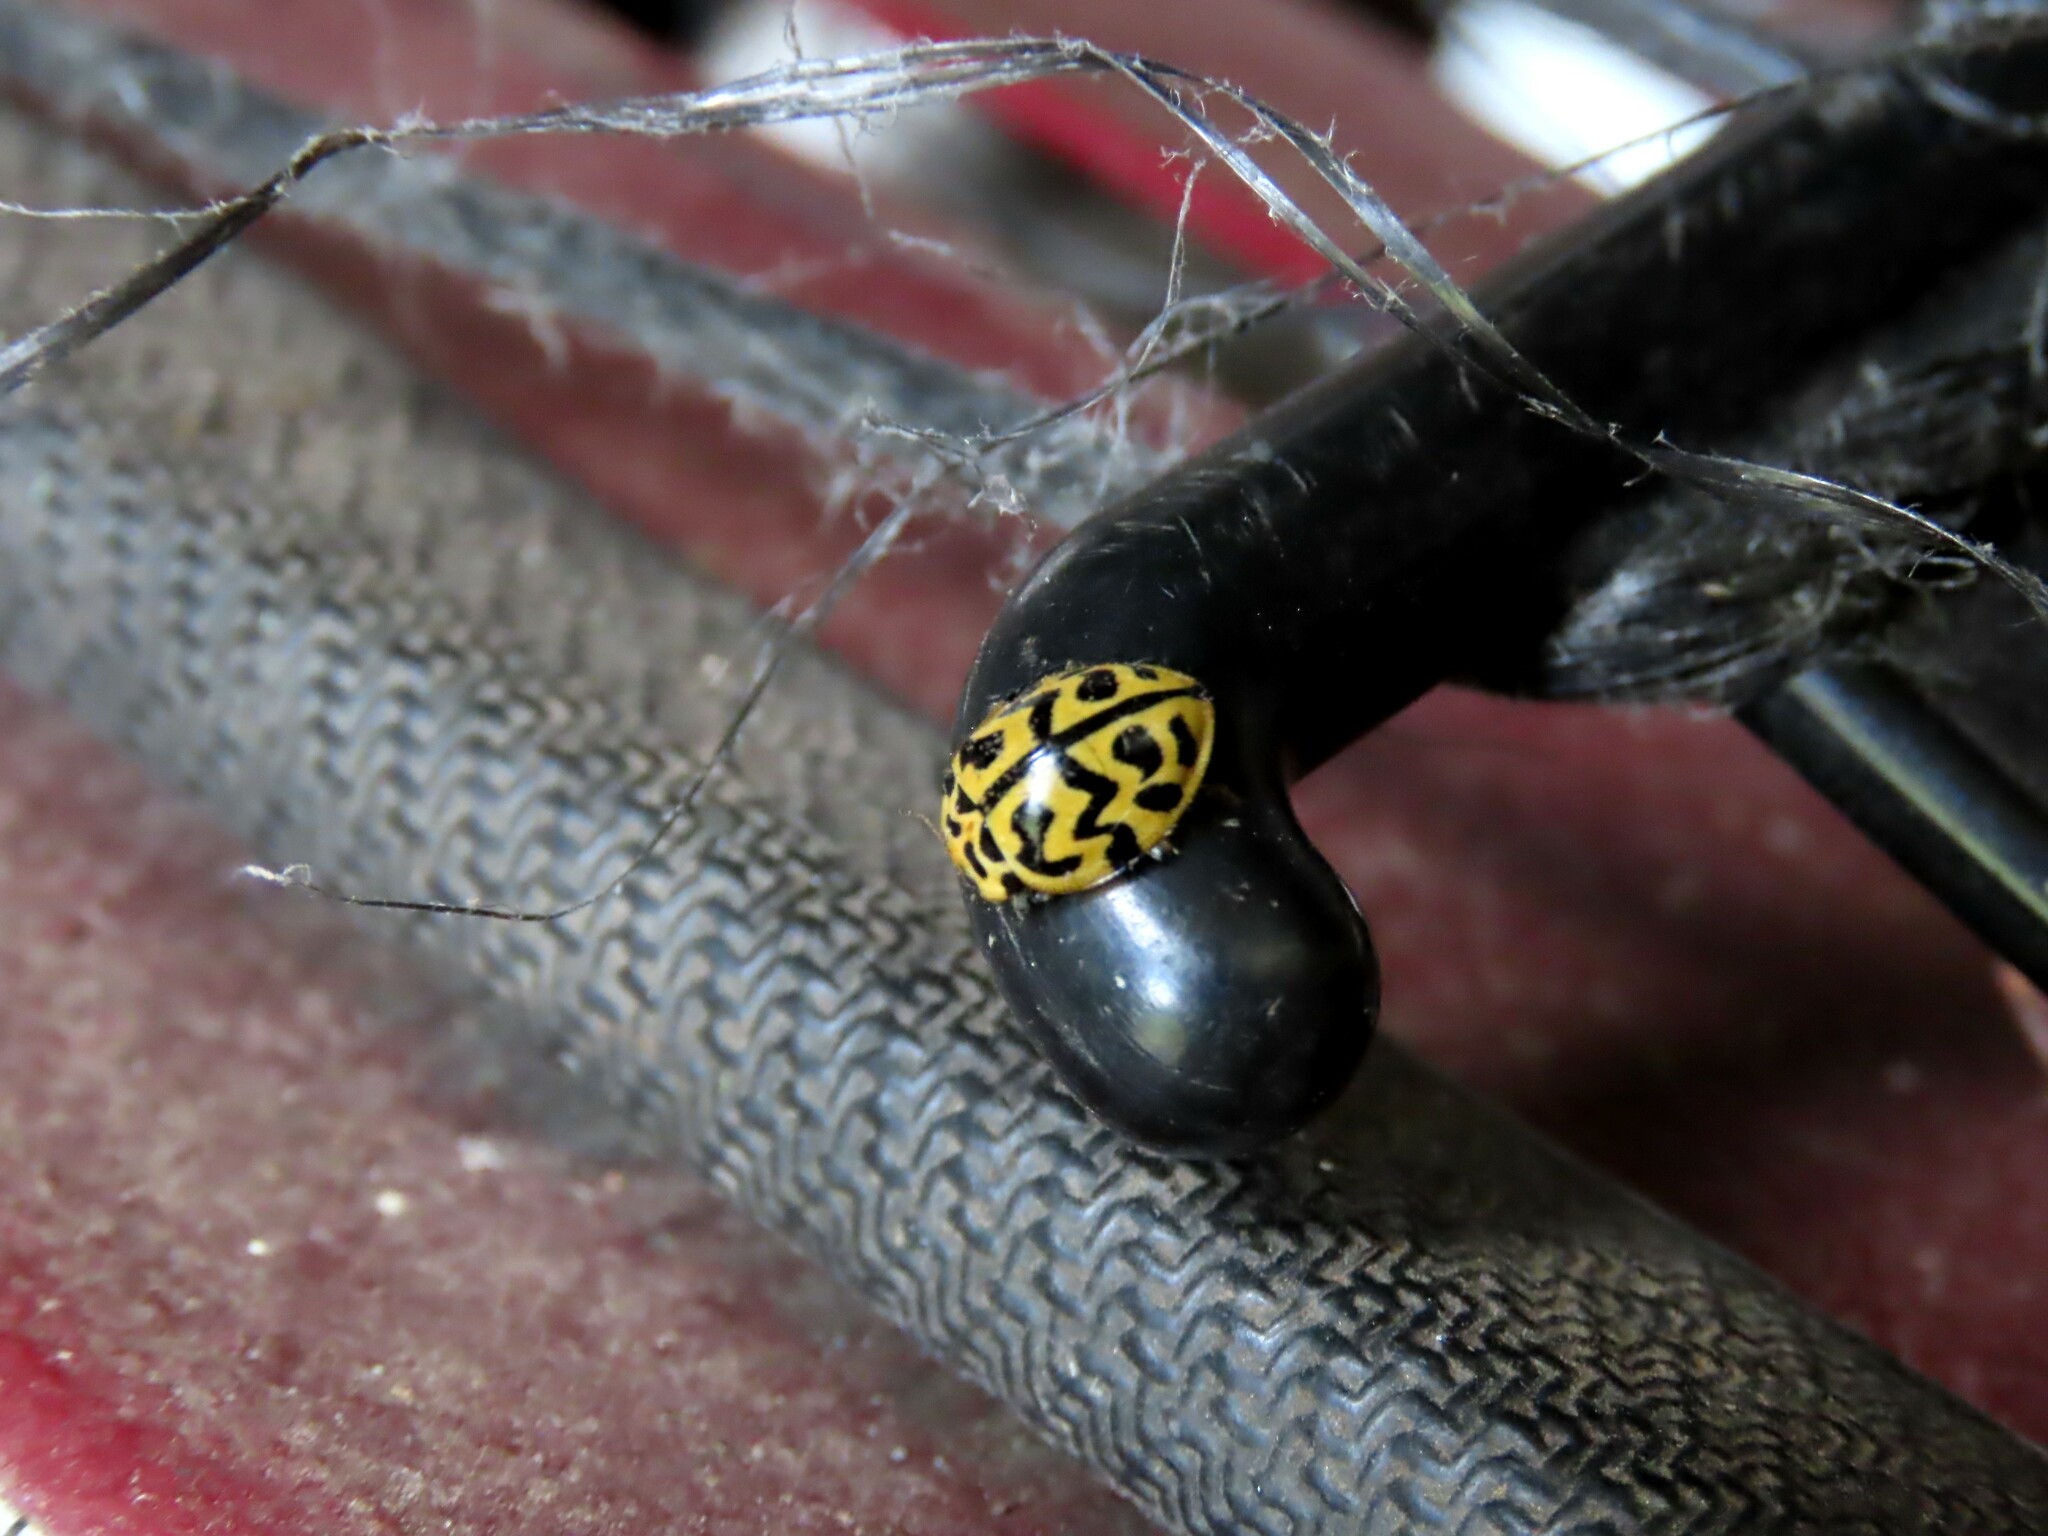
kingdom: Animalia
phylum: Arthropoda
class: Insecta
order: Coleoptera
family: Coccinellidae
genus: Cleobora
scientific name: Cleobora
